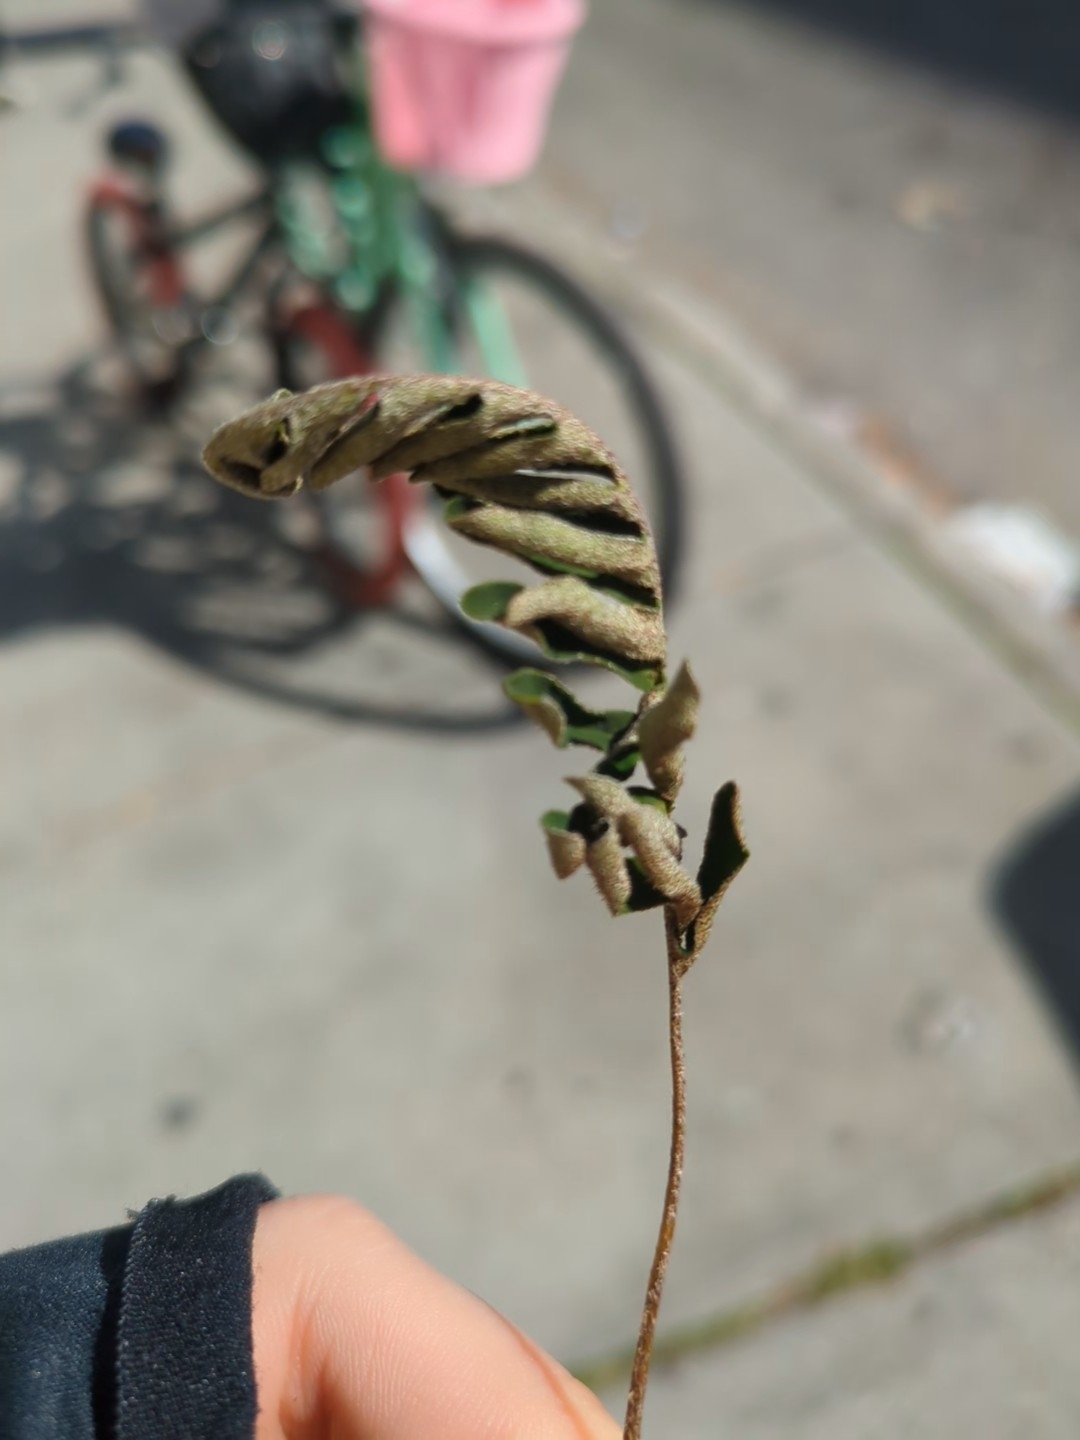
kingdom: Plantae
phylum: Tracheophyta
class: Polypodiopsida
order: Polypodiales
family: Polypodiaceae
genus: Pleopeltis
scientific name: Pleopeltis michauxiana
